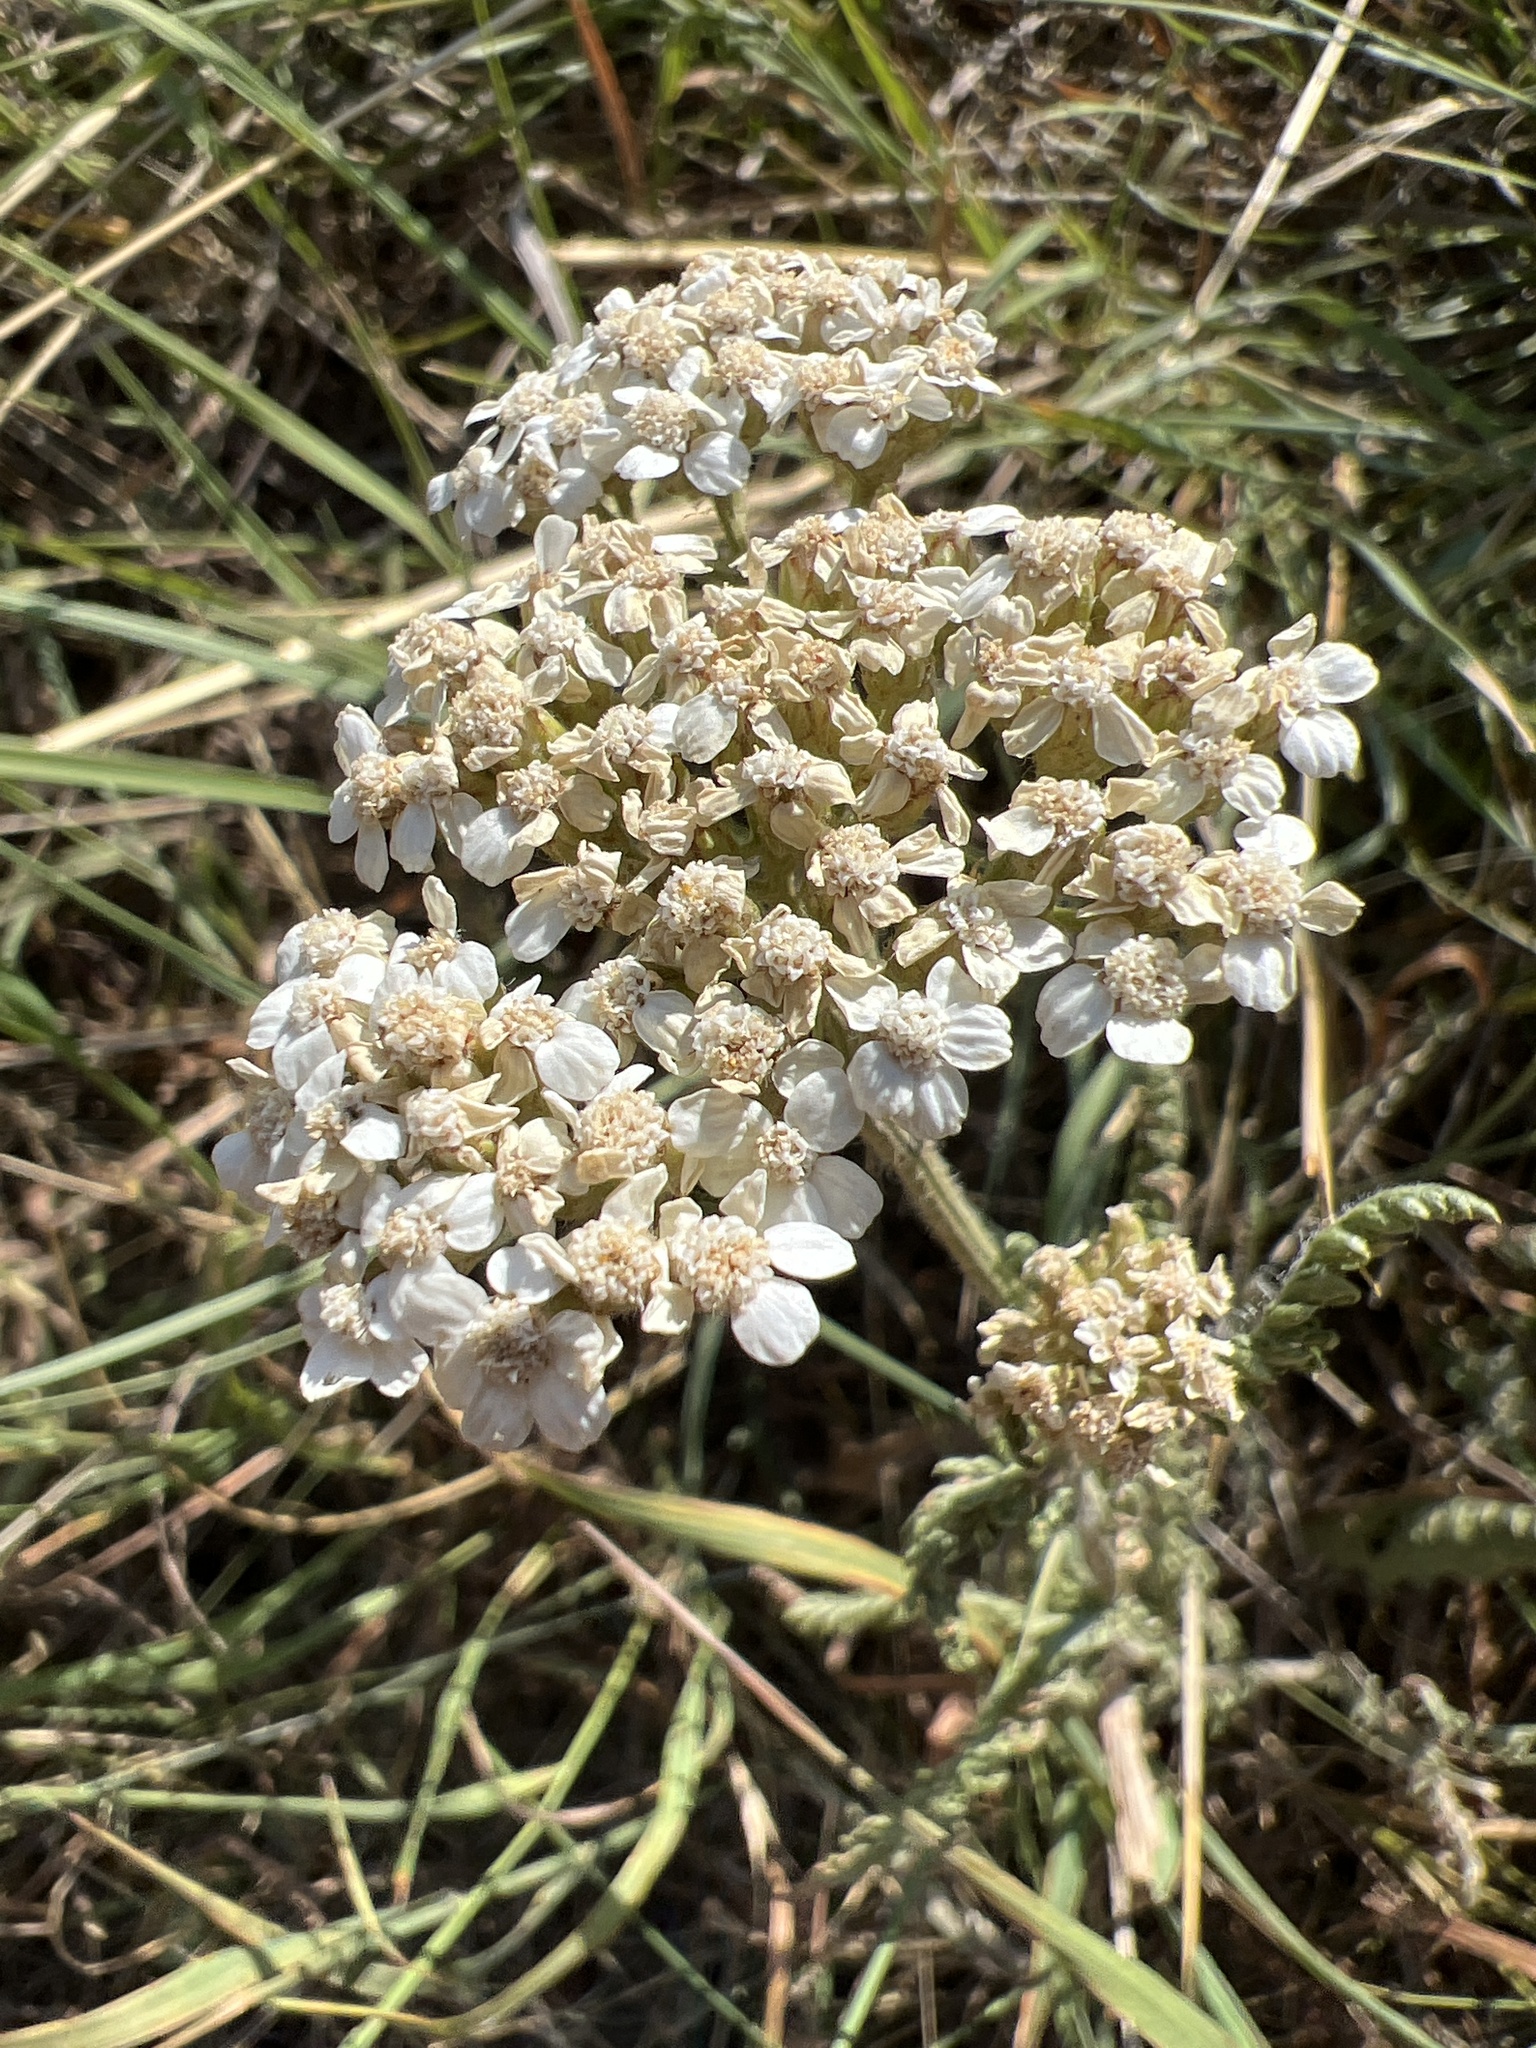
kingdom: Plantae
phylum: Tracheophyta
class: Magnoliopsida
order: Asterales
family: Asteraceae
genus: Achillea
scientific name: Achillea millefolium
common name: Yarrow
